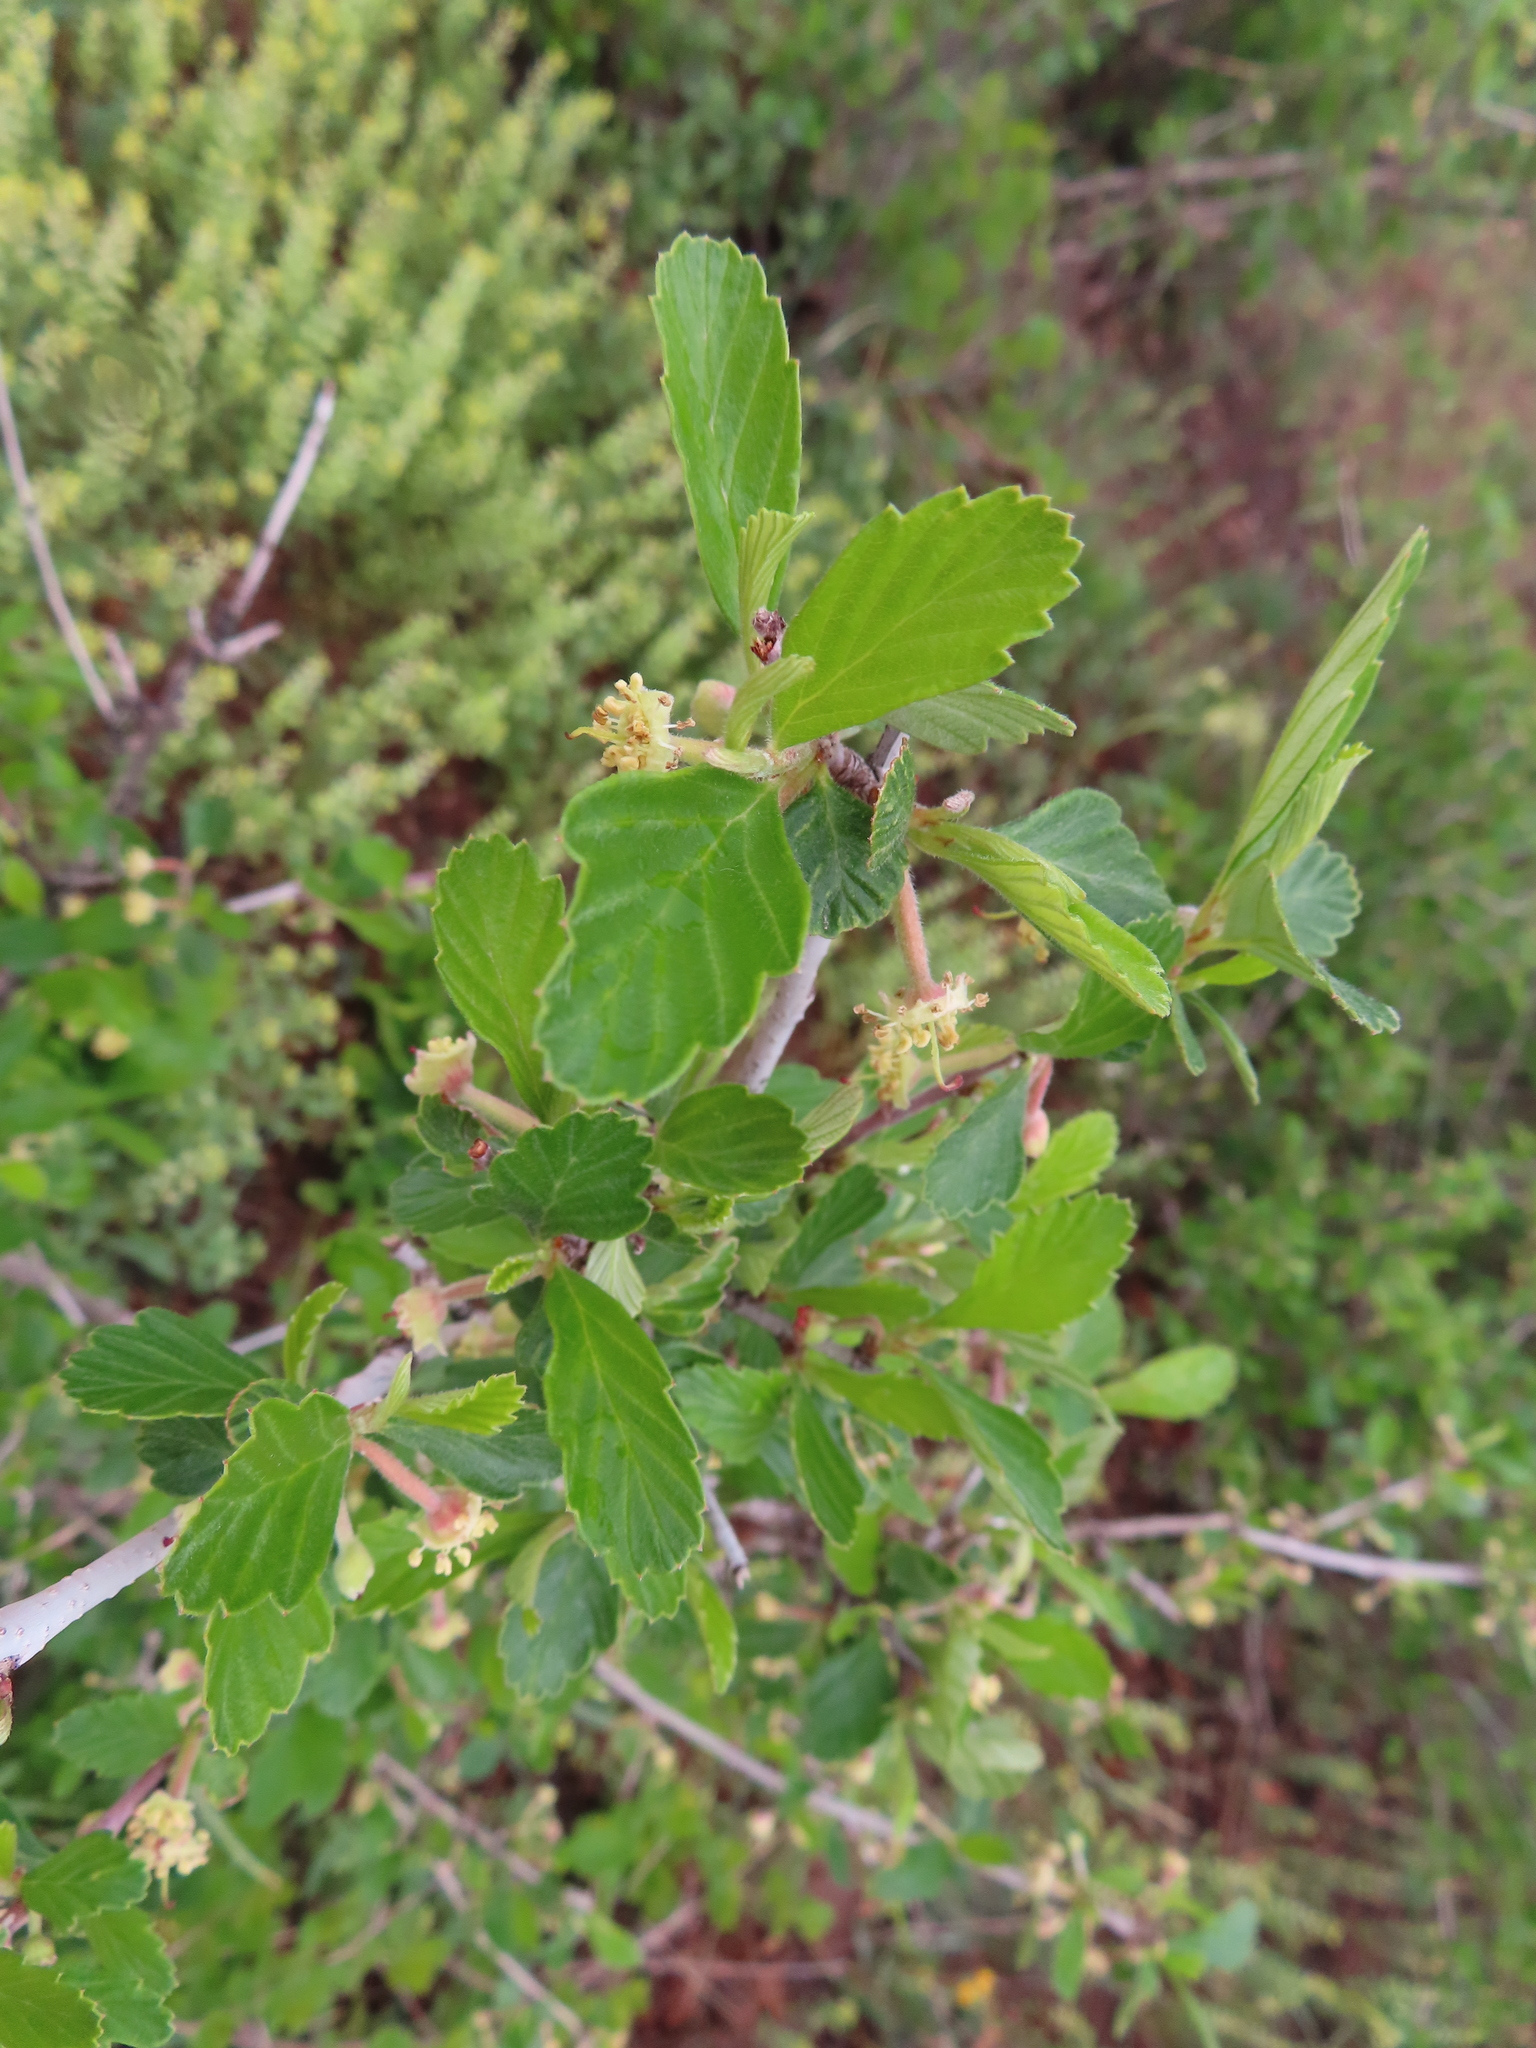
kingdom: Plantae
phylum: Tracheophyta
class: Magnoliopsida
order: Rosales
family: Rosaceae
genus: Cercocarpus
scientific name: Cercocarpus montanus
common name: Alder-leaf cercocarpus
